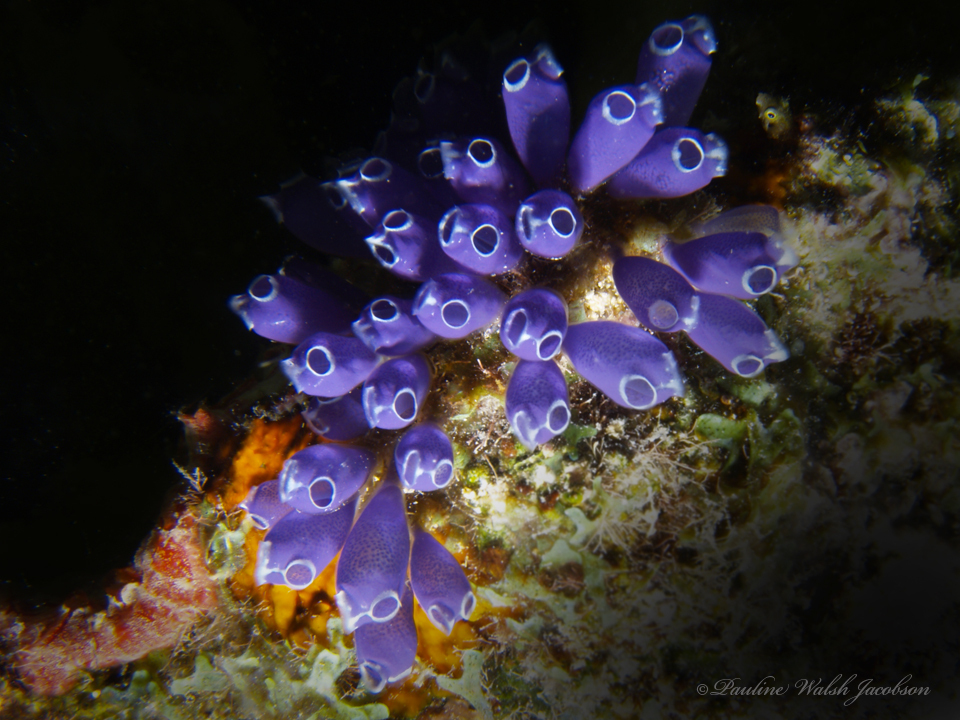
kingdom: Animalia
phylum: Chordata
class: Ascidiacea
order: Aplousobranchia
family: Clavelinidae
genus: Clavelina
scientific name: Clavelina puertosecensis
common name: Blue bell tunicate
